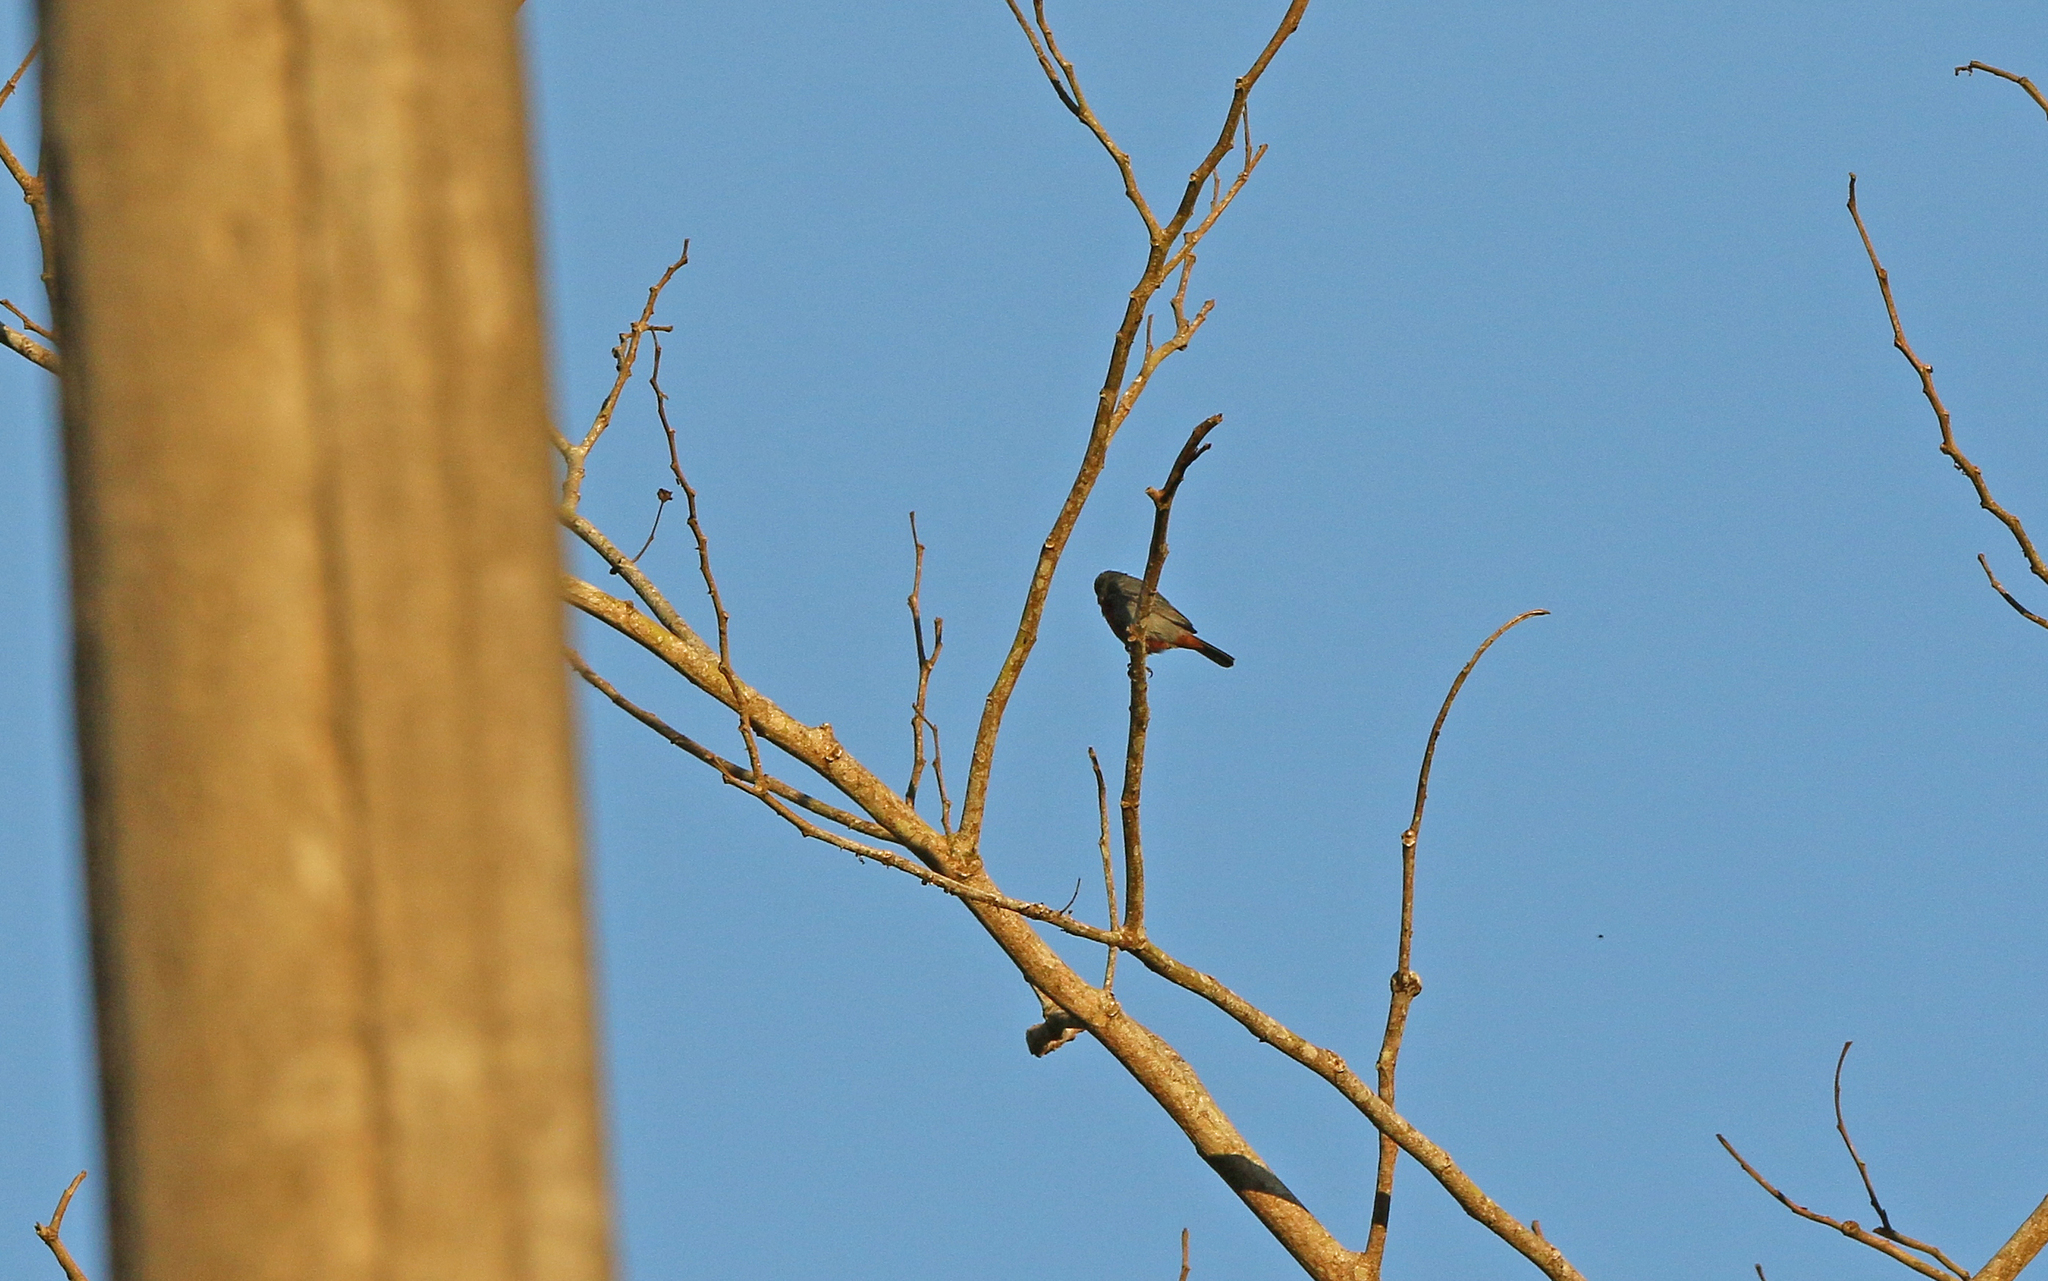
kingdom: Animalia
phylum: Chordata
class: Aves
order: Passeriformes
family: Thraupidae
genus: Sporophila
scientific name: Sporophila castaneiventris
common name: Chestnut-bellied seedeater
